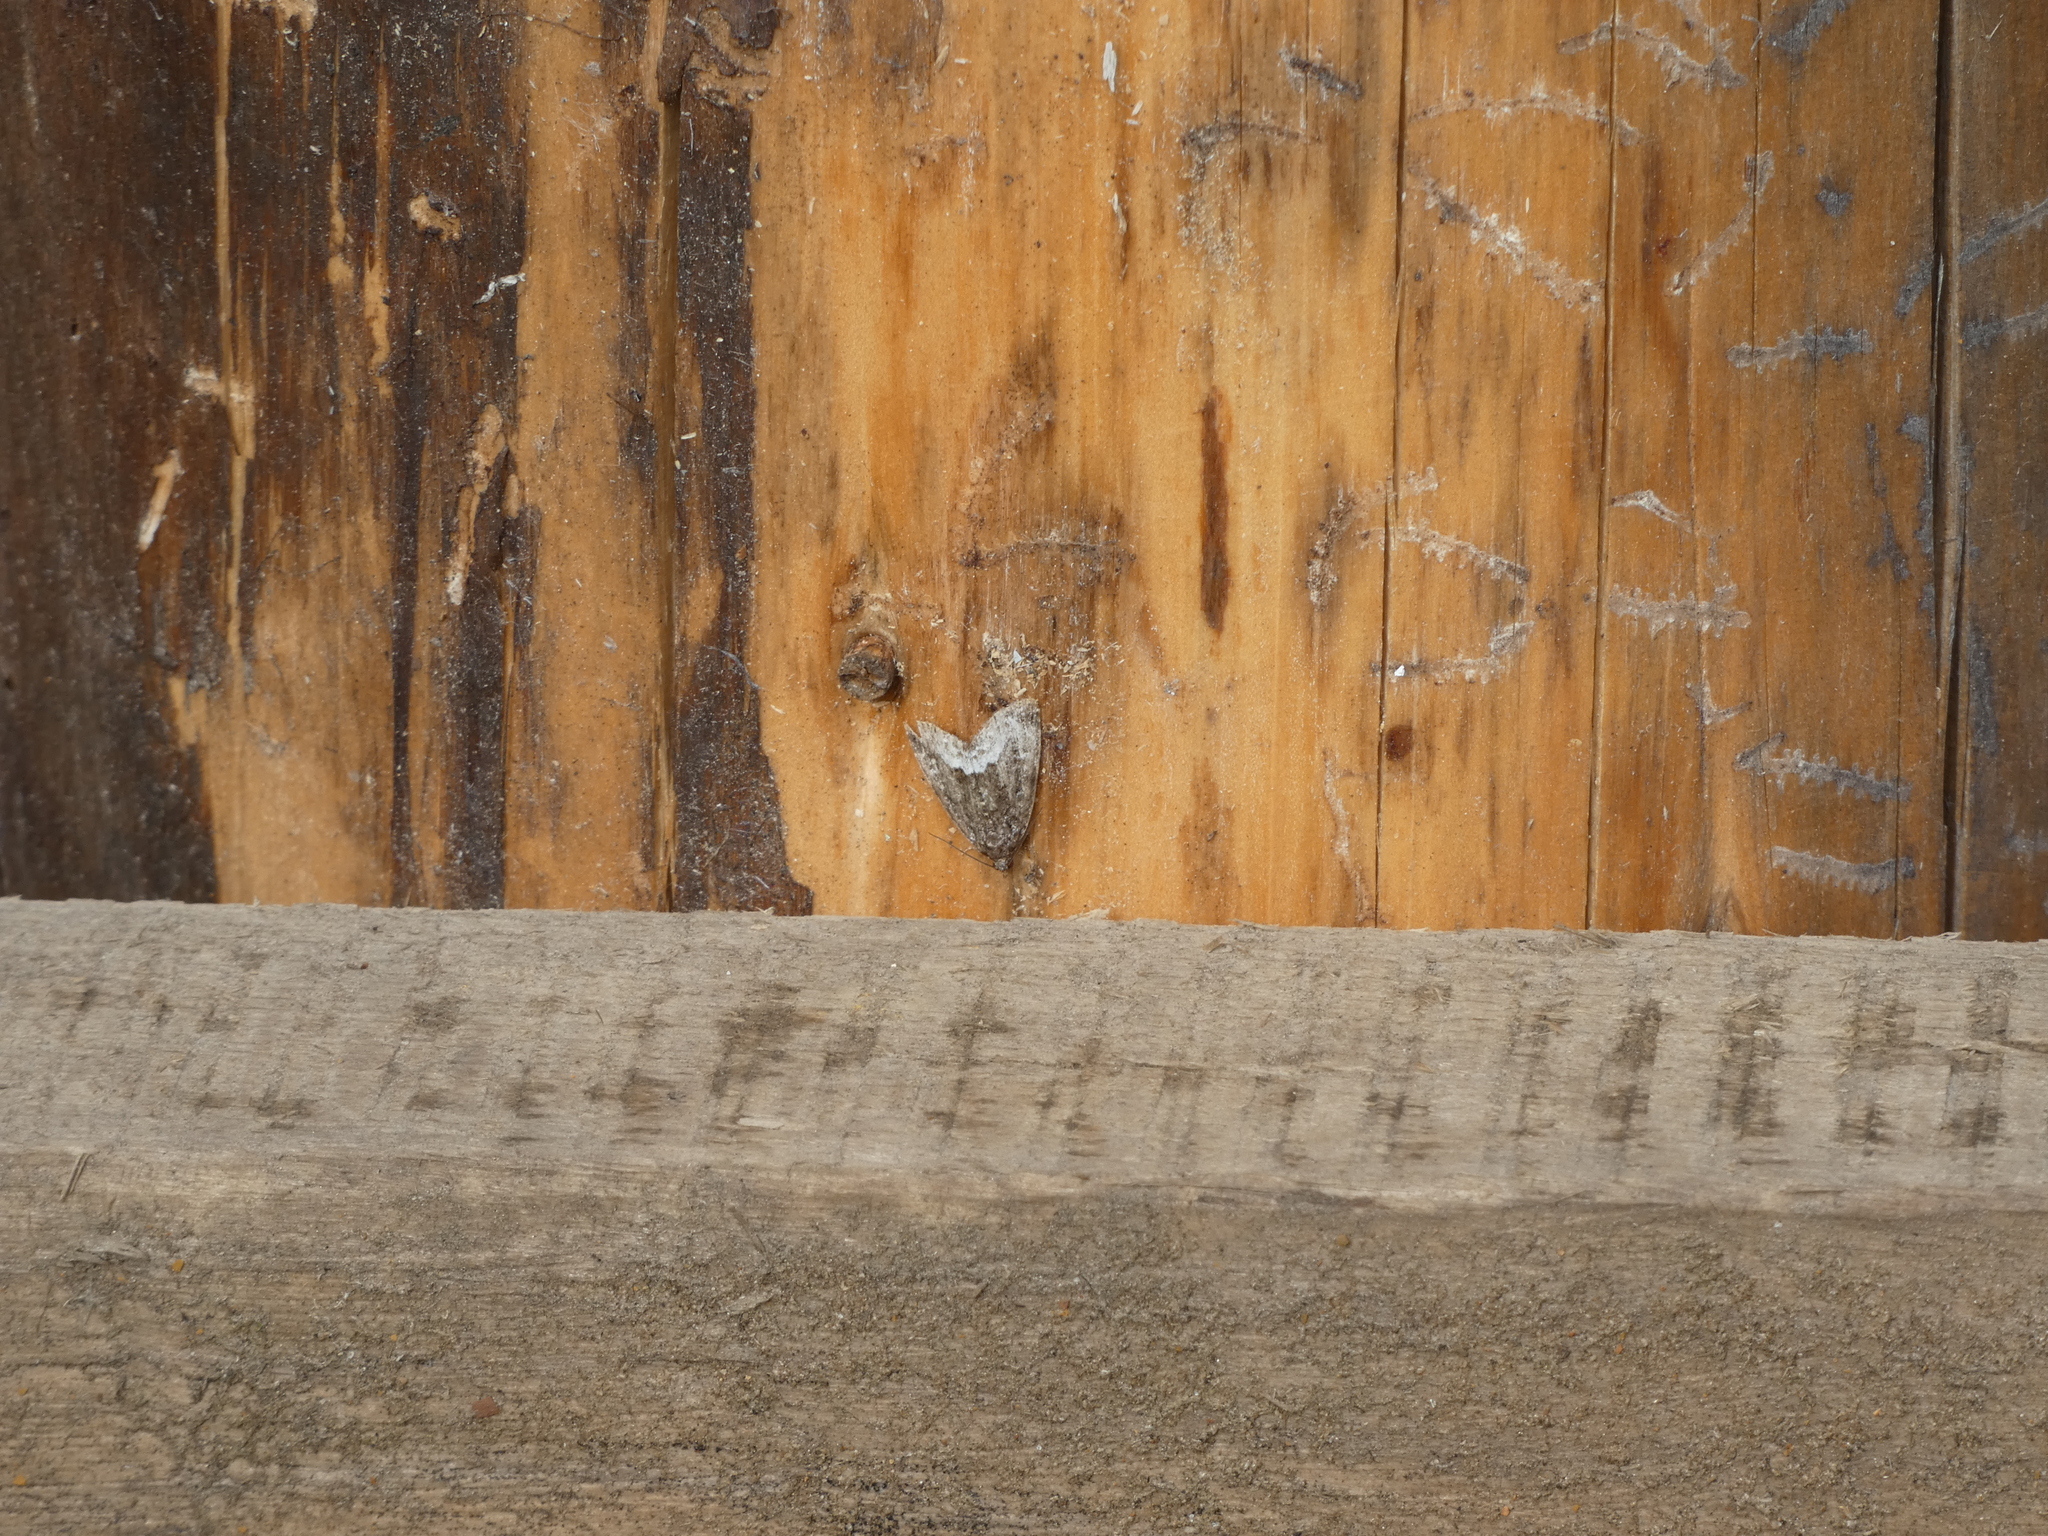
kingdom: Animalia
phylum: Arthropoda
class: Insecta
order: Lepidoptera
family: Noctuidae
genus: Deltote
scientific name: Deltote pygarga
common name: Marbled white spot
